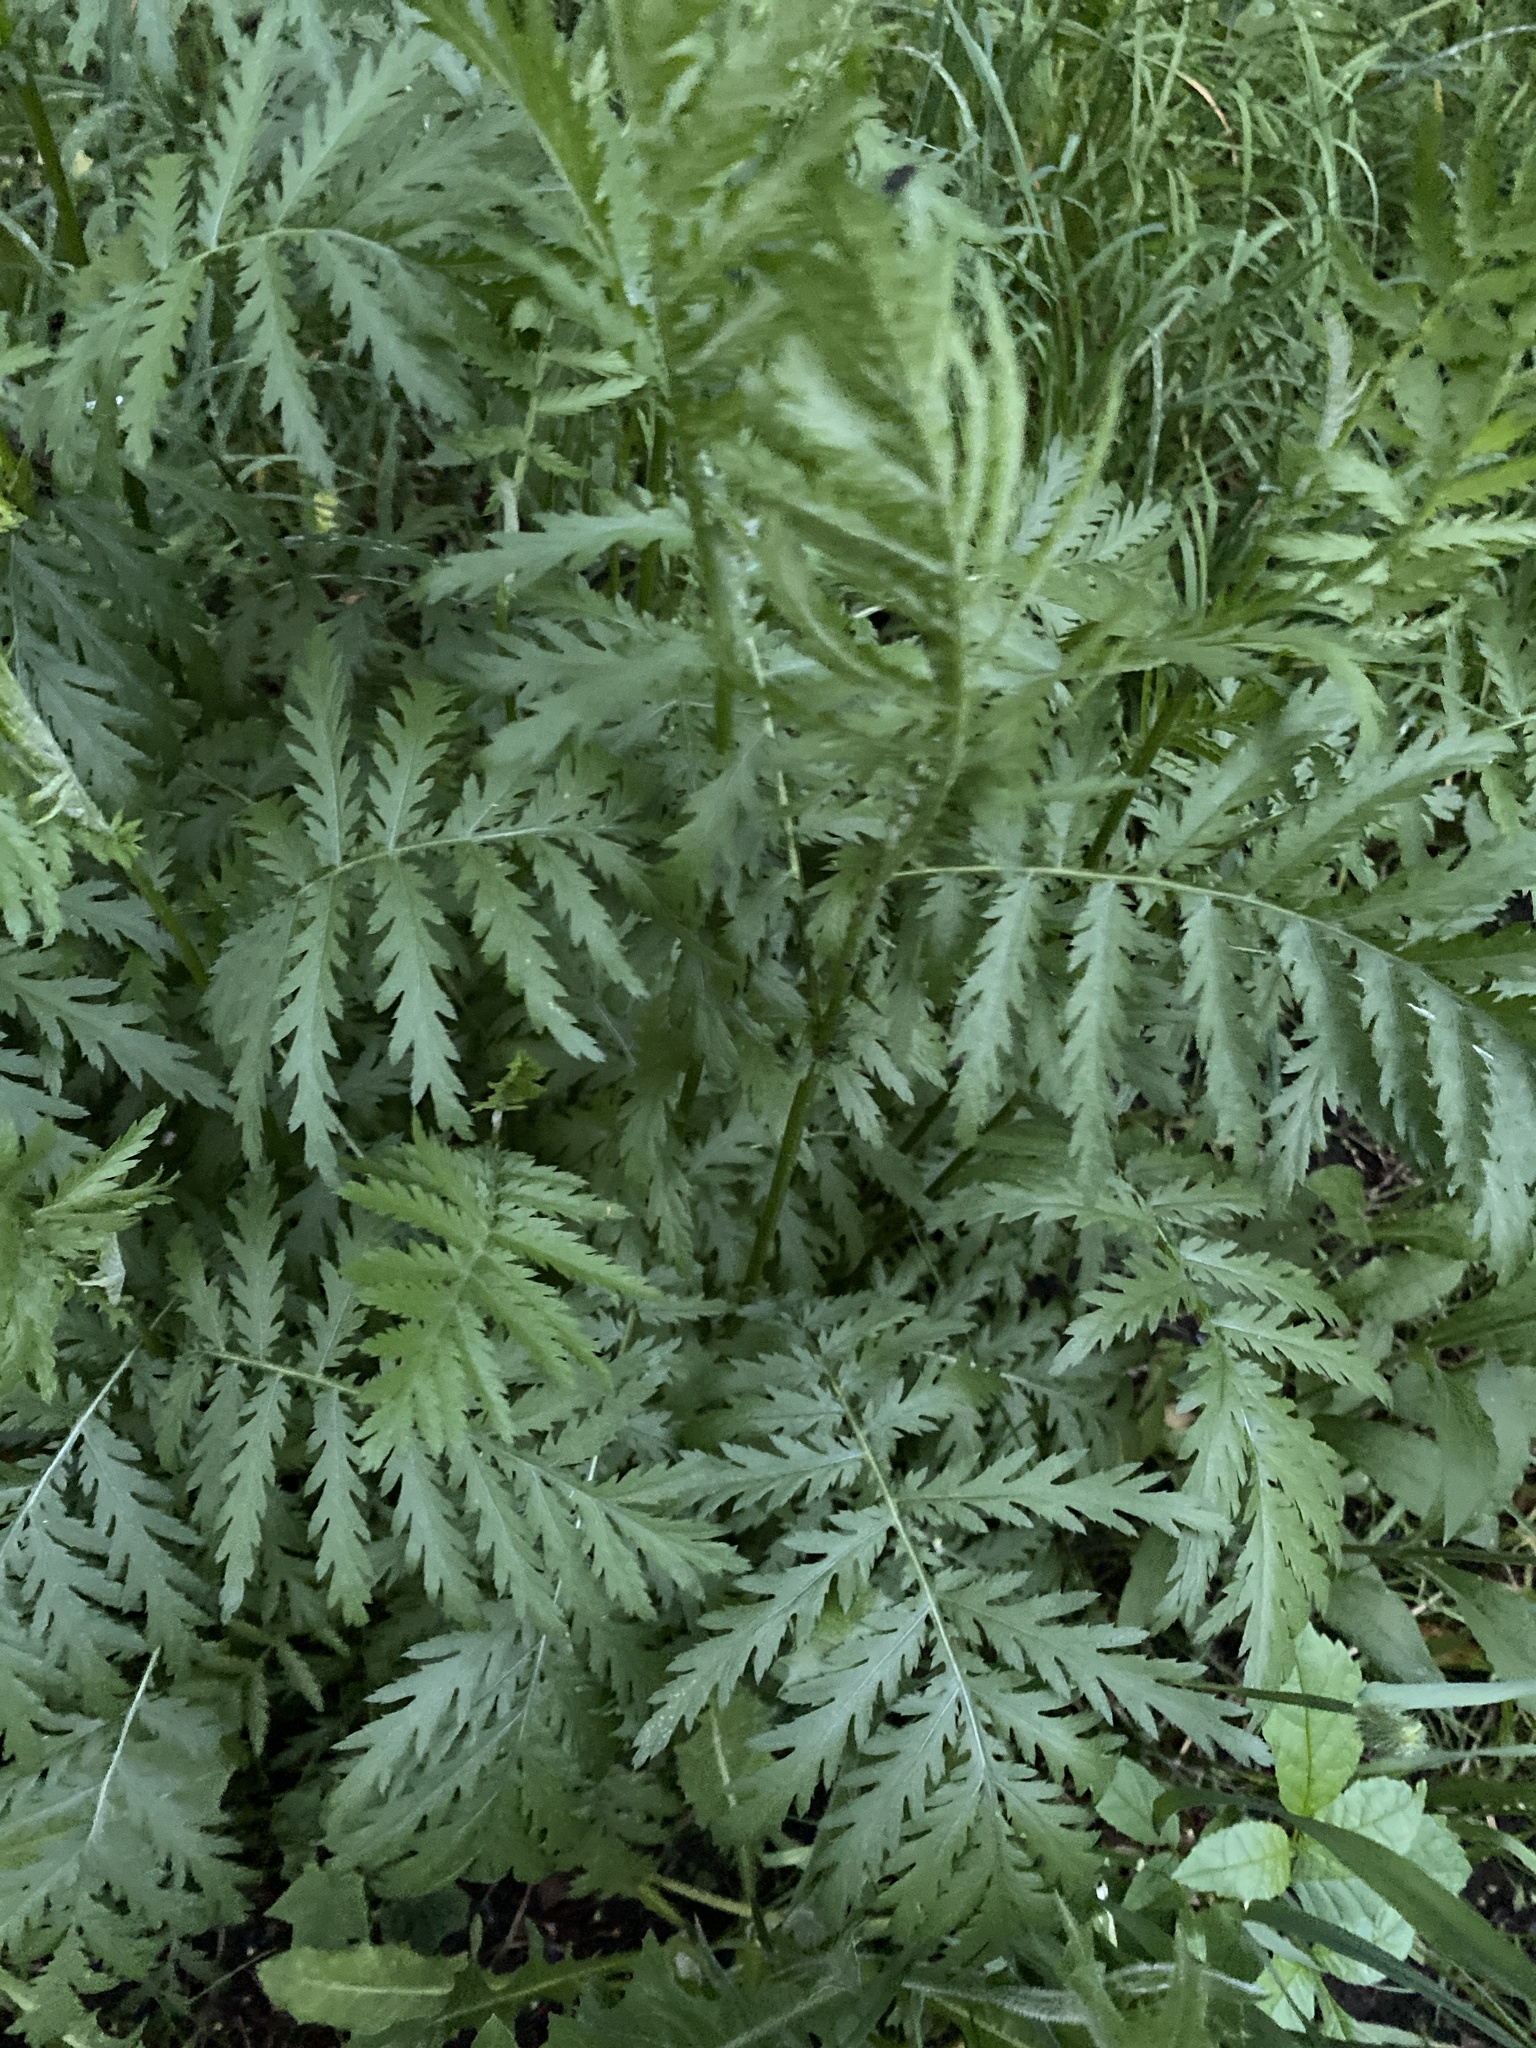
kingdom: Plantae
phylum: Tracheophyta
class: Magnoliopsida
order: Asterales
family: Asteraceae
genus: Tanacetum
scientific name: Tanacetum vulgare
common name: Common tansy
